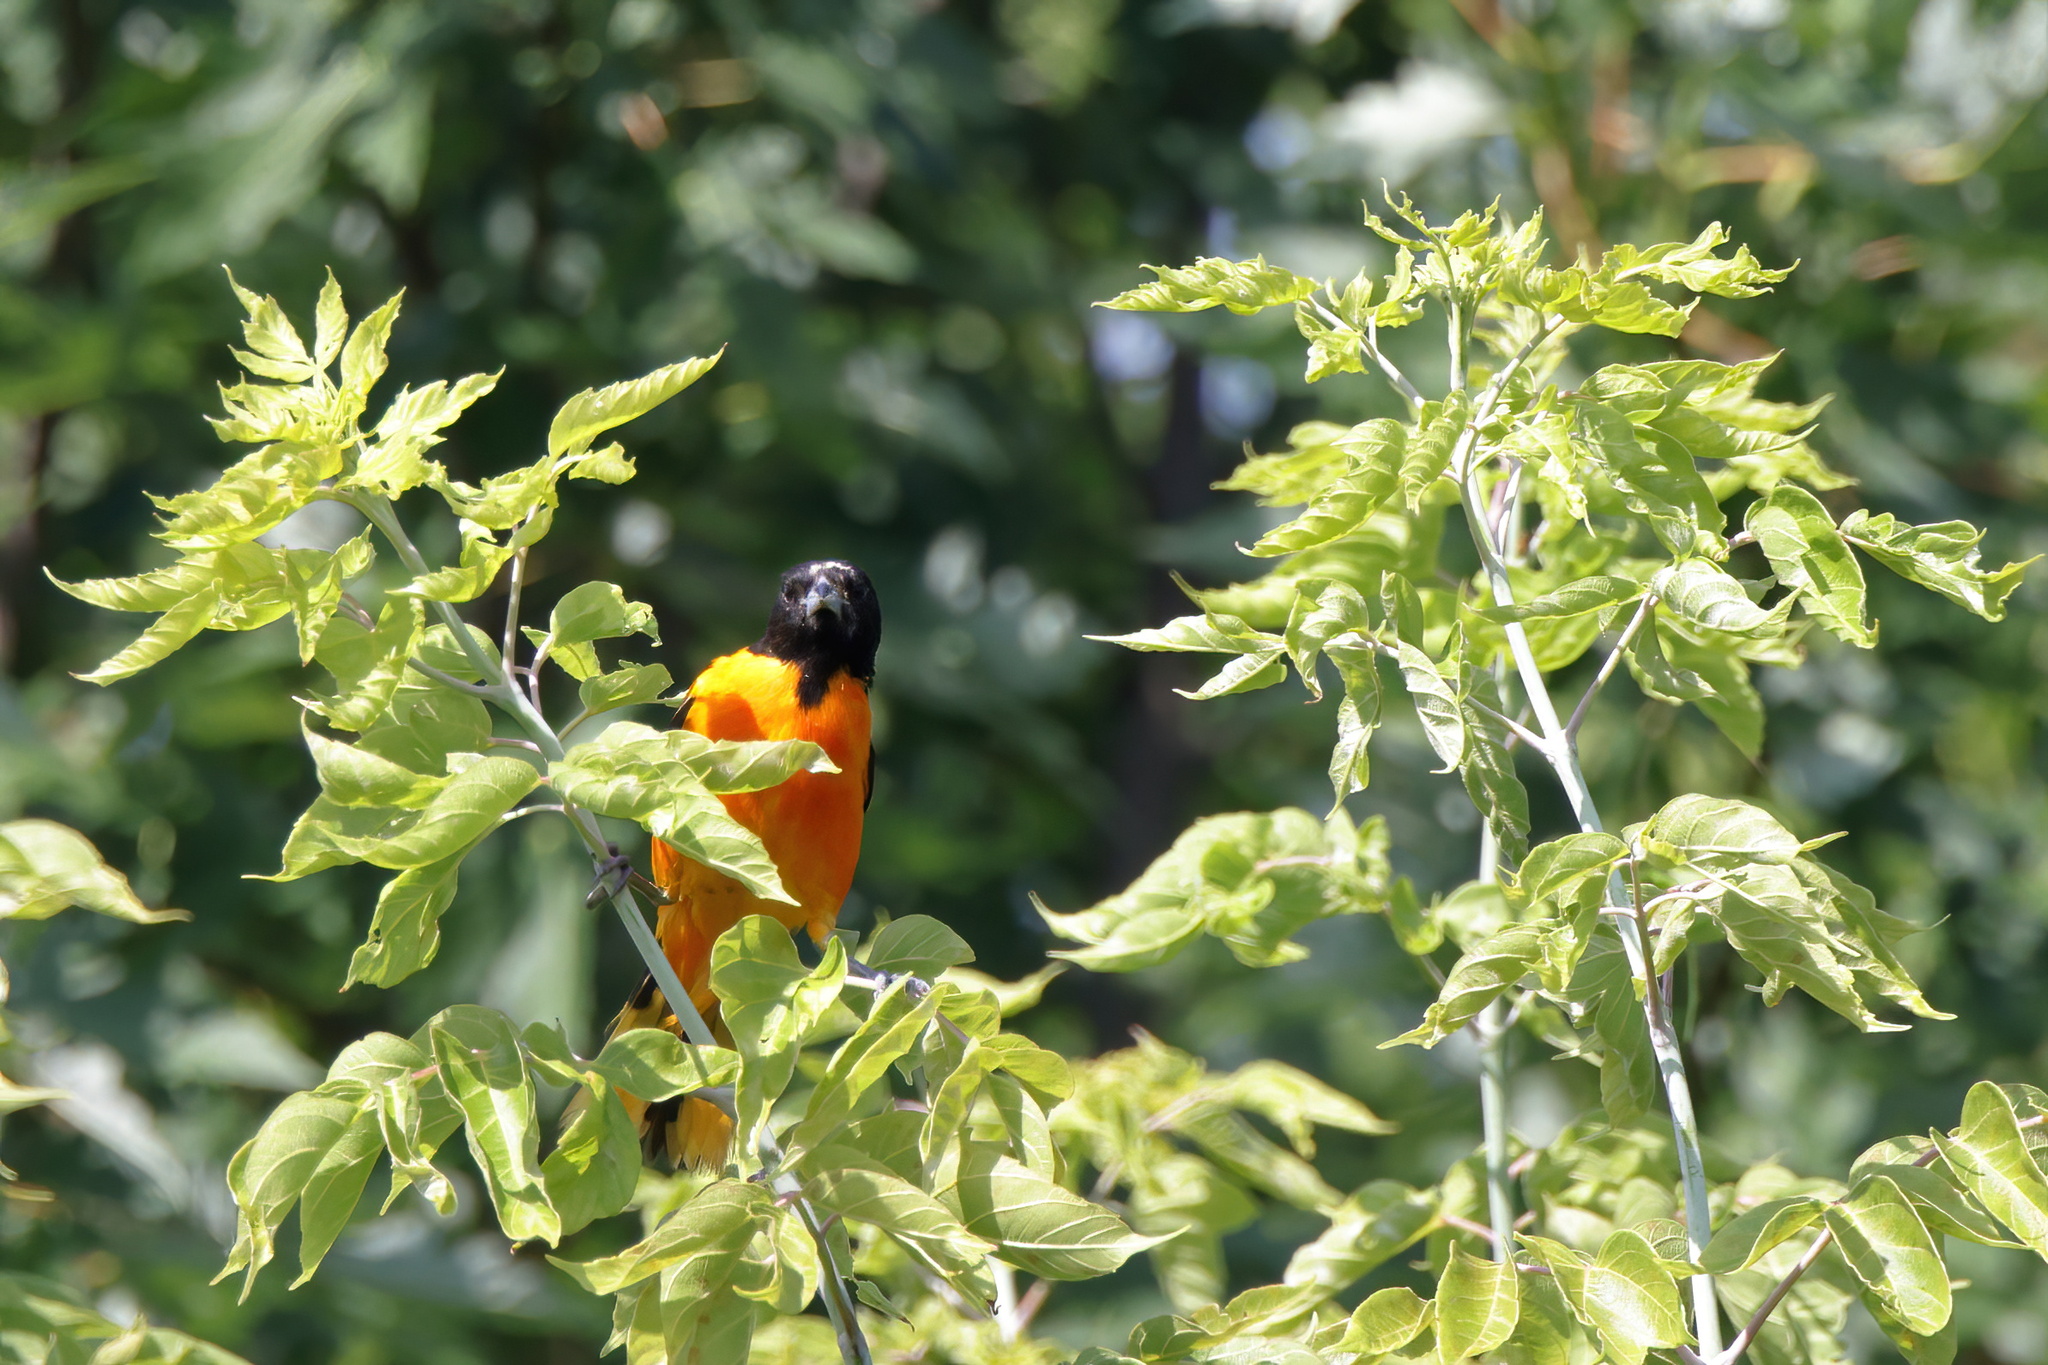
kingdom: Animalia
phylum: Chordata
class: Aves
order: Passeriformes
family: Icteridae
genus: Icterus
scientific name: Icterus galbula
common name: Baltimore oriole
